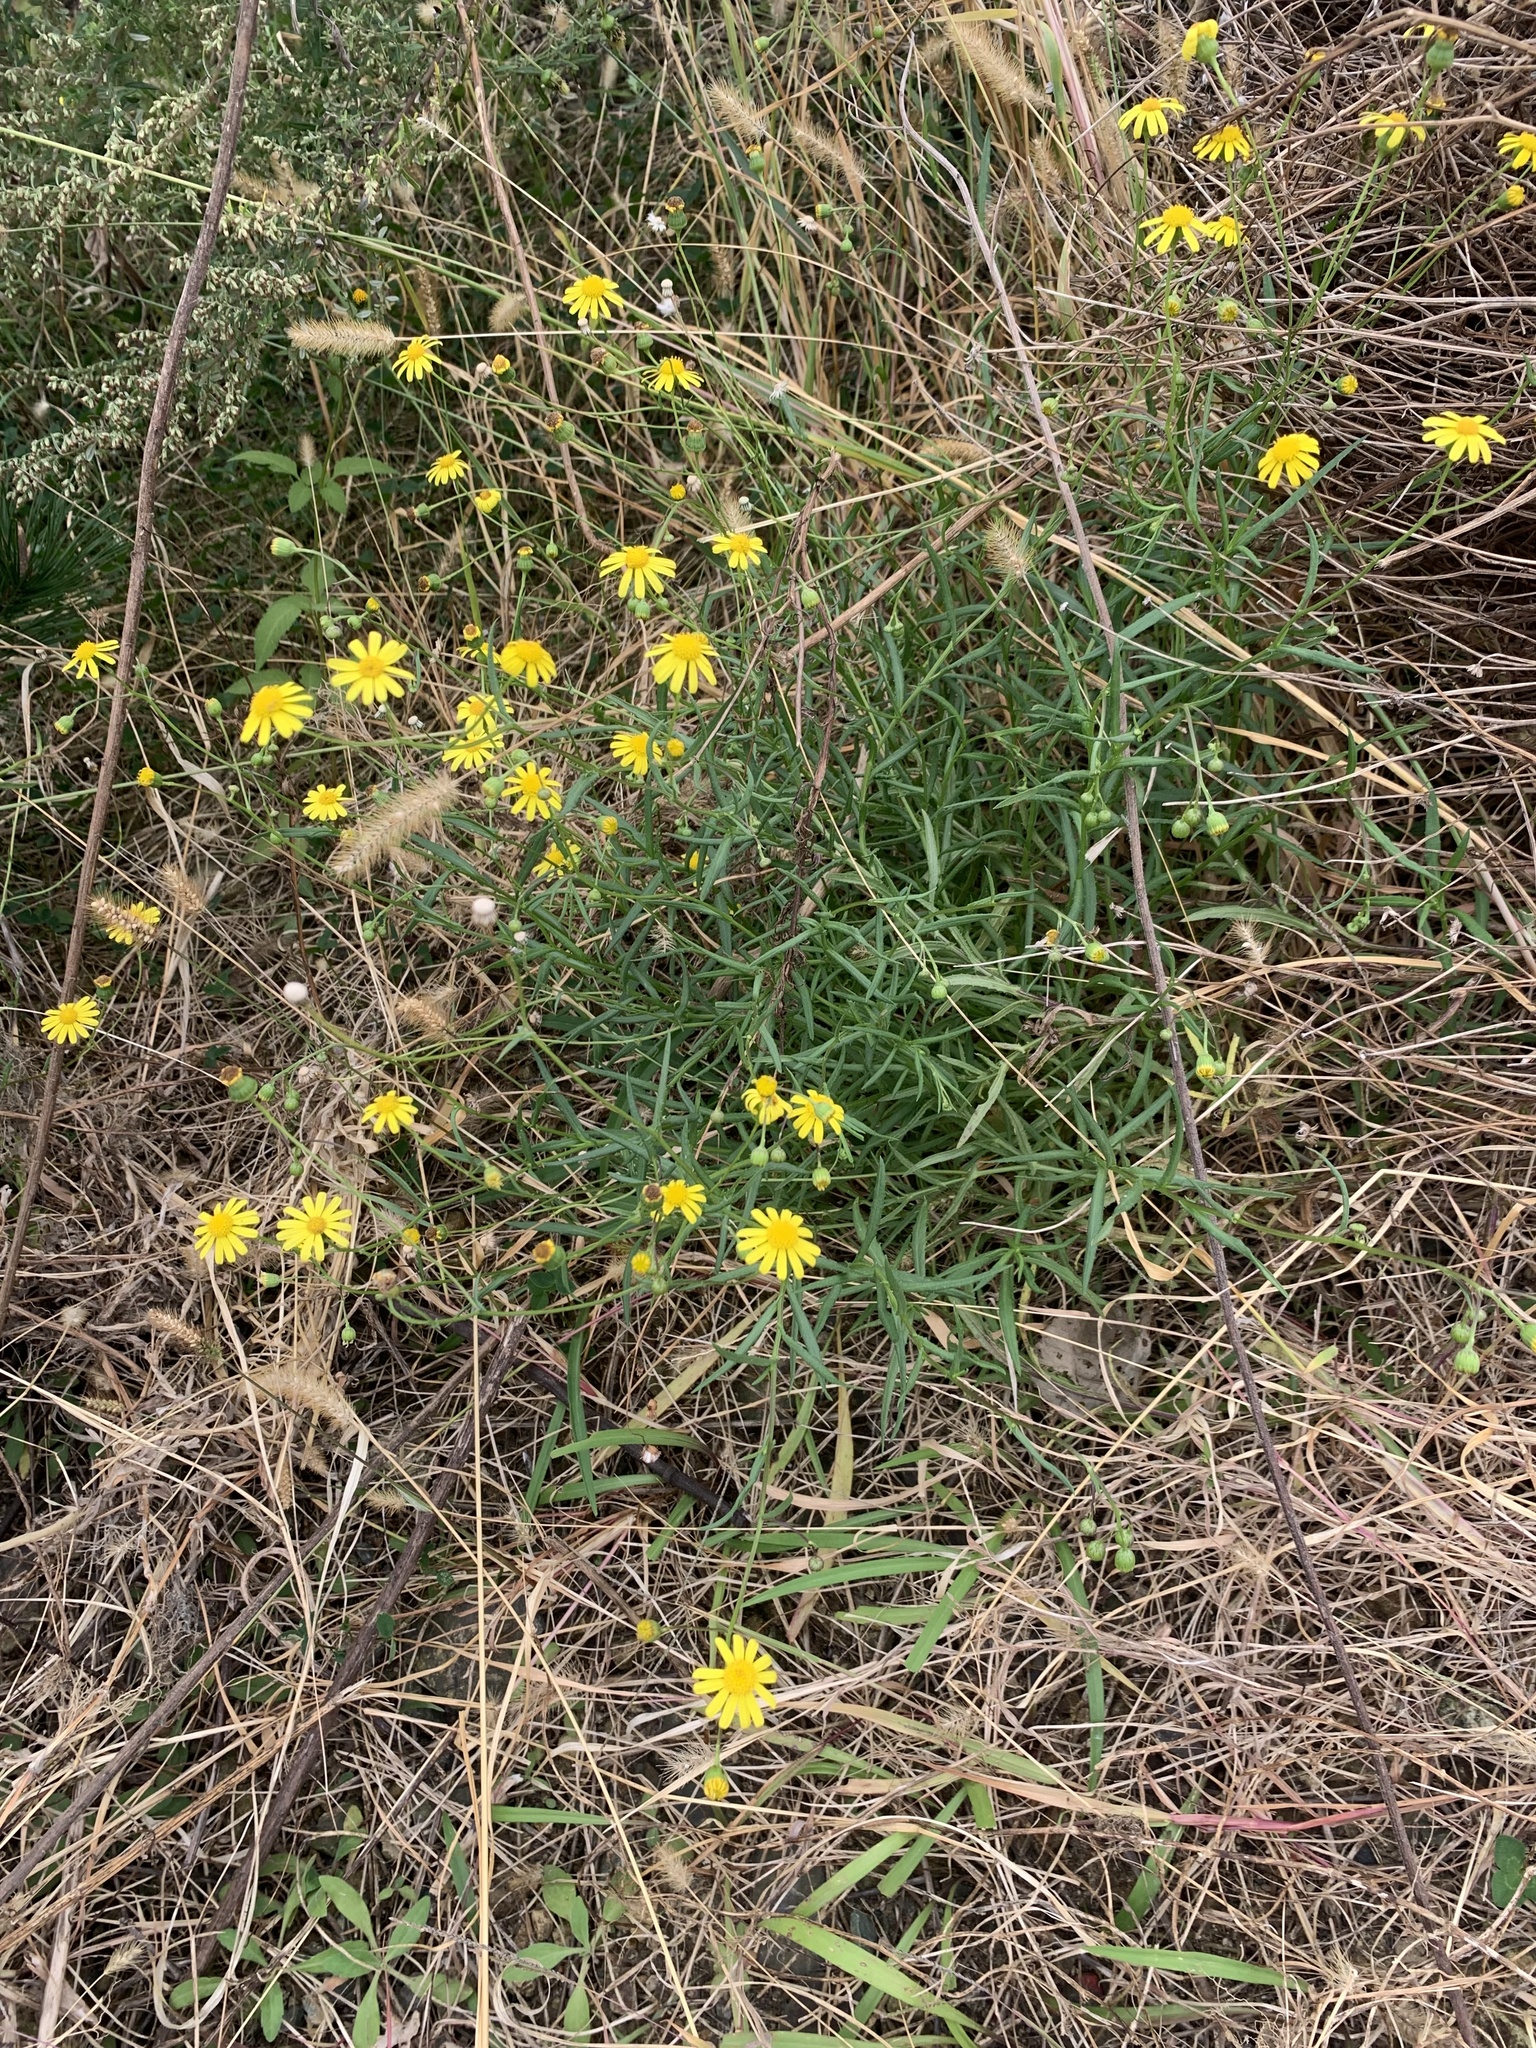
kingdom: Plantae
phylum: Tracheophyta
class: Magnoliopsida
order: Asterales
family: Asteraceae
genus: Senecio
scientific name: Senecio madagascariensis
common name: Madagascar ragwort
